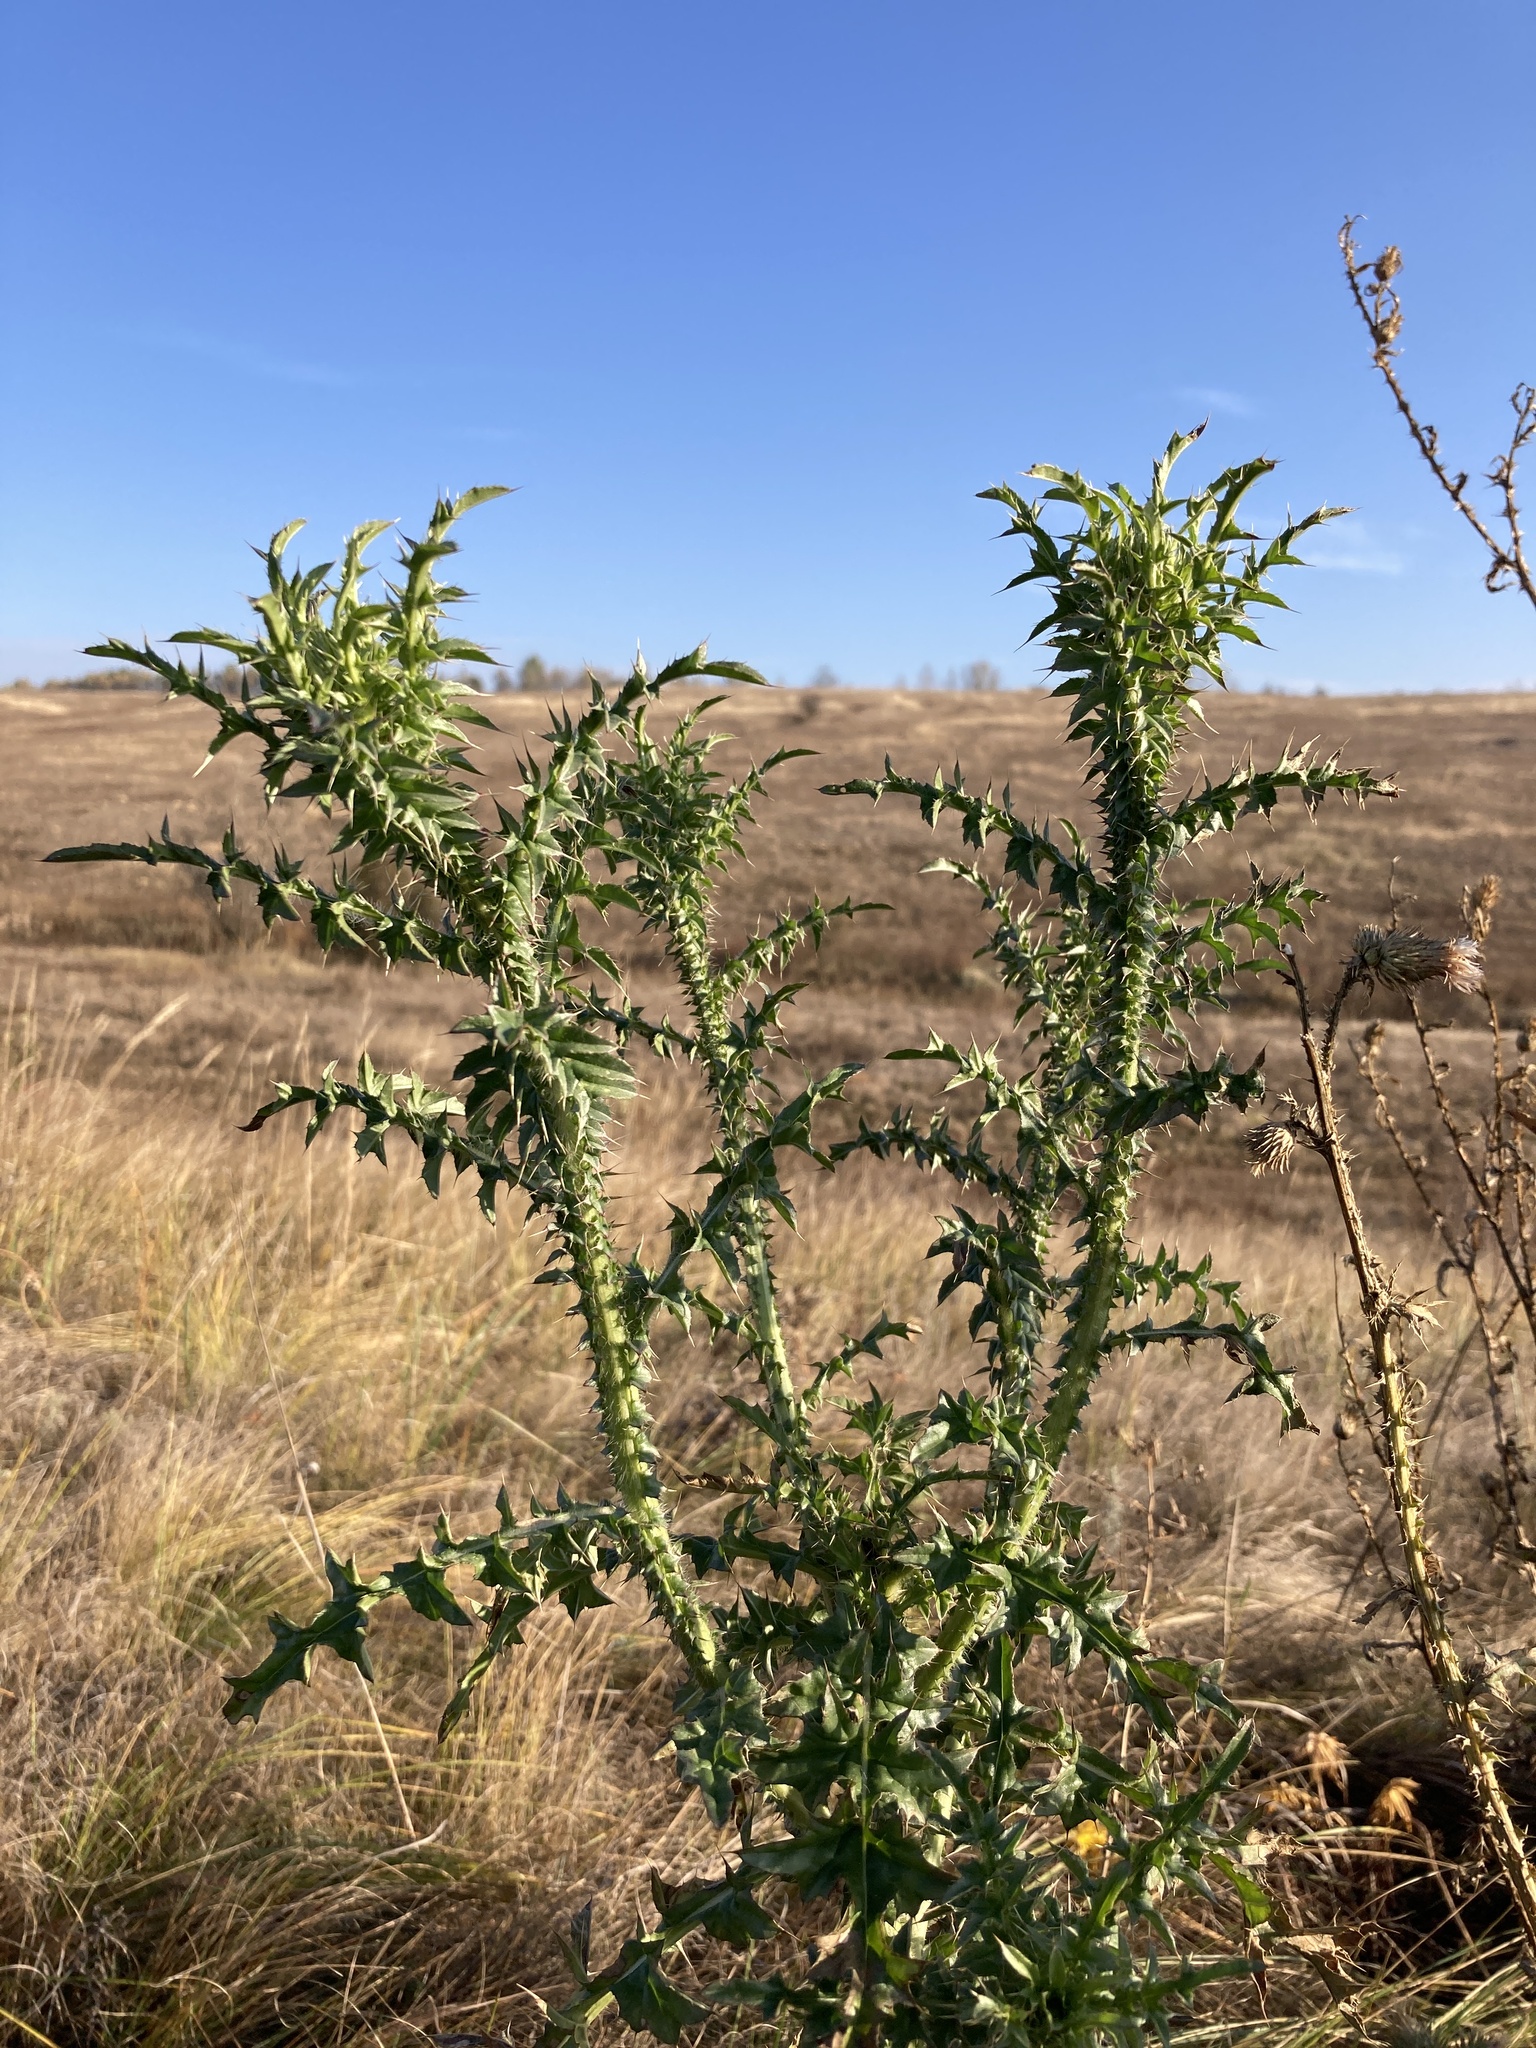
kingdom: Plantae
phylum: Tracheophyta
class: Magnoliopsida
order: Asterales
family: Asteraceae
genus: Carduus
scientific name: Carduus acanthoides
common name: Plumeless thistle
